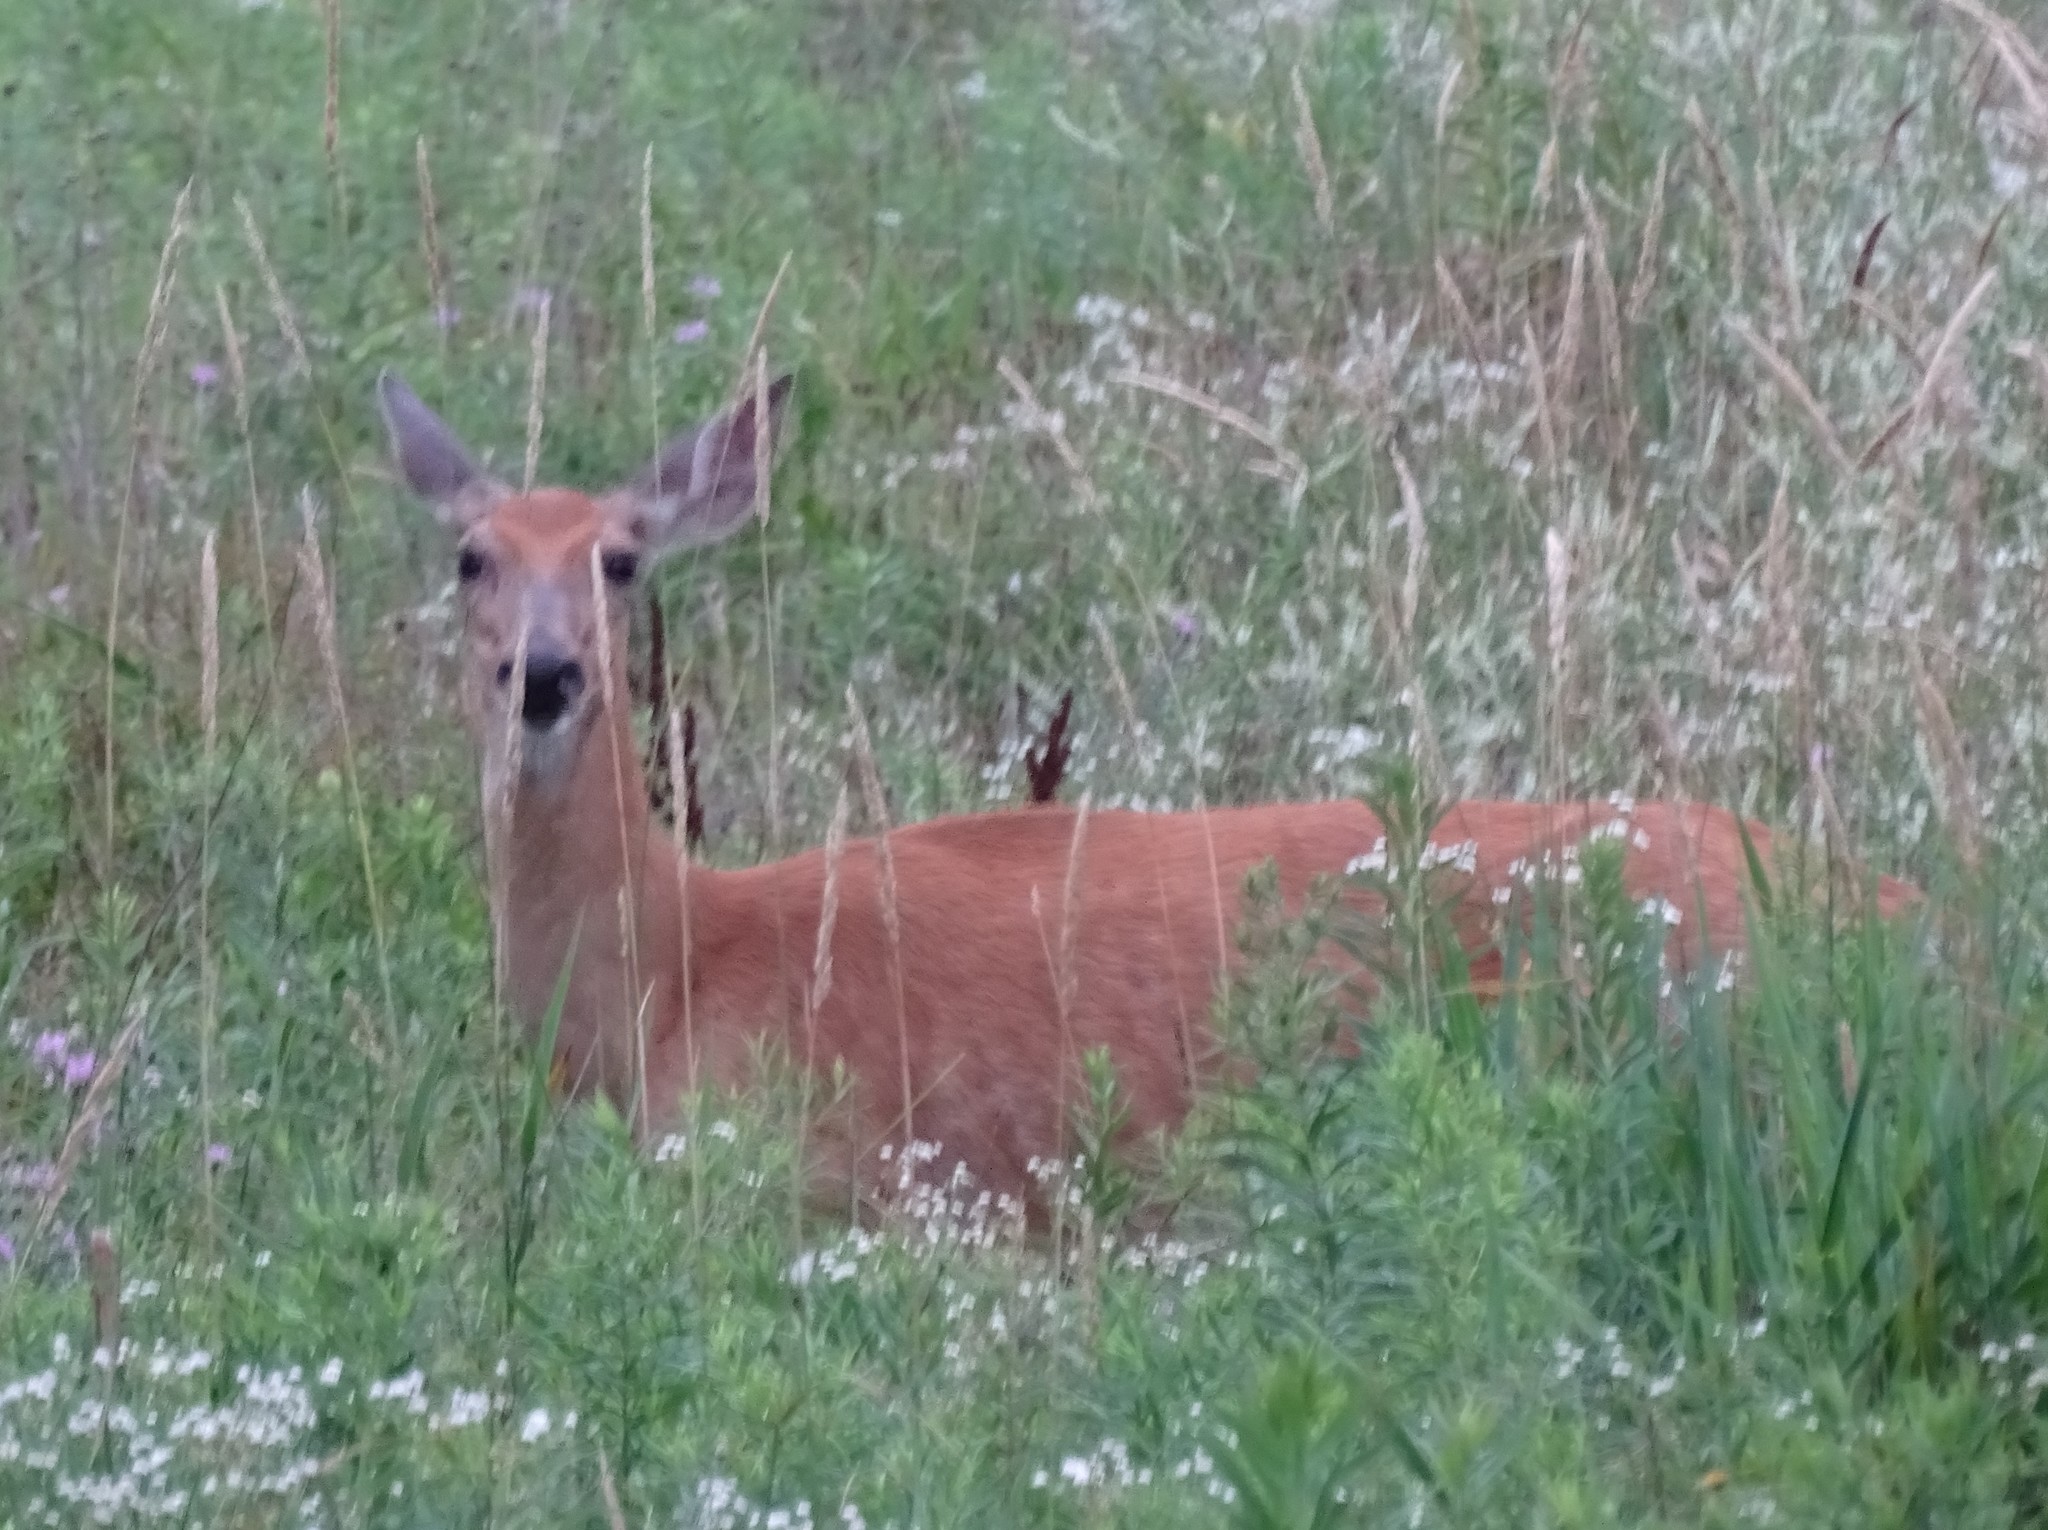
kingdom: Animalia
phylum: Chordata
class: Mammalia
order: Artiodactyla
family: Cervidae
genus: Odocoileus
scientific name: Odocoileus virginianus
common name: White-tailed deer
